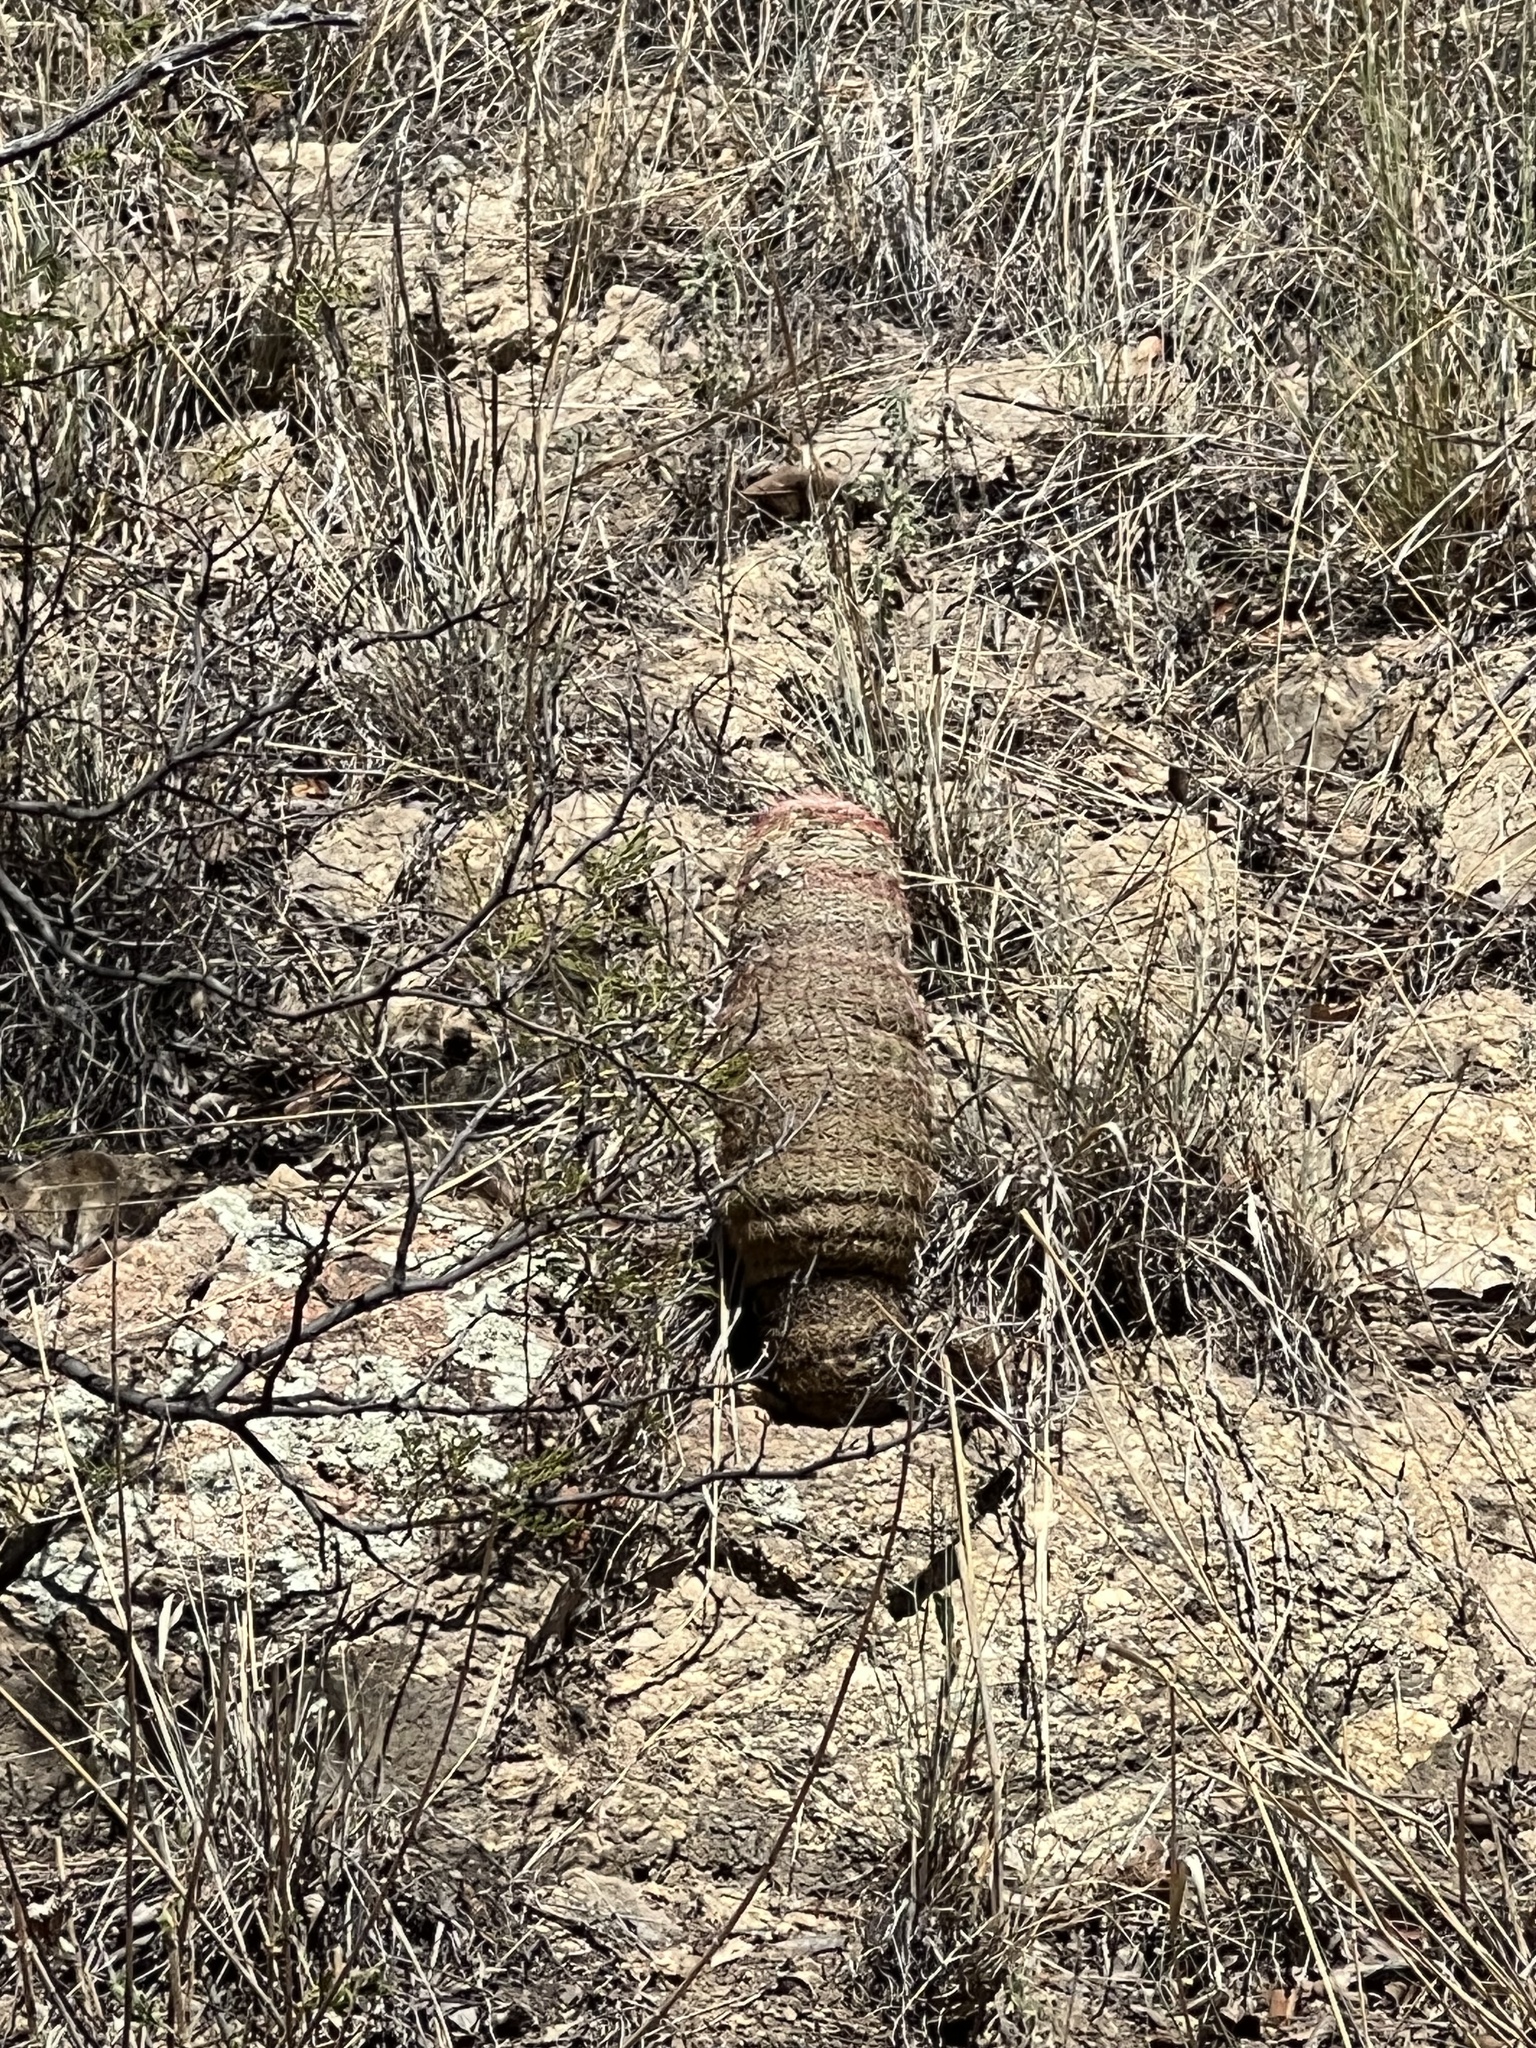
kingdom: Plantae
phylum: Tracheophyta
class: Magnoliopsida
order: Caryophyllales
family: Cactaceae
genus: Echinocereus
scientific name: Echinocereus rigidissimus
